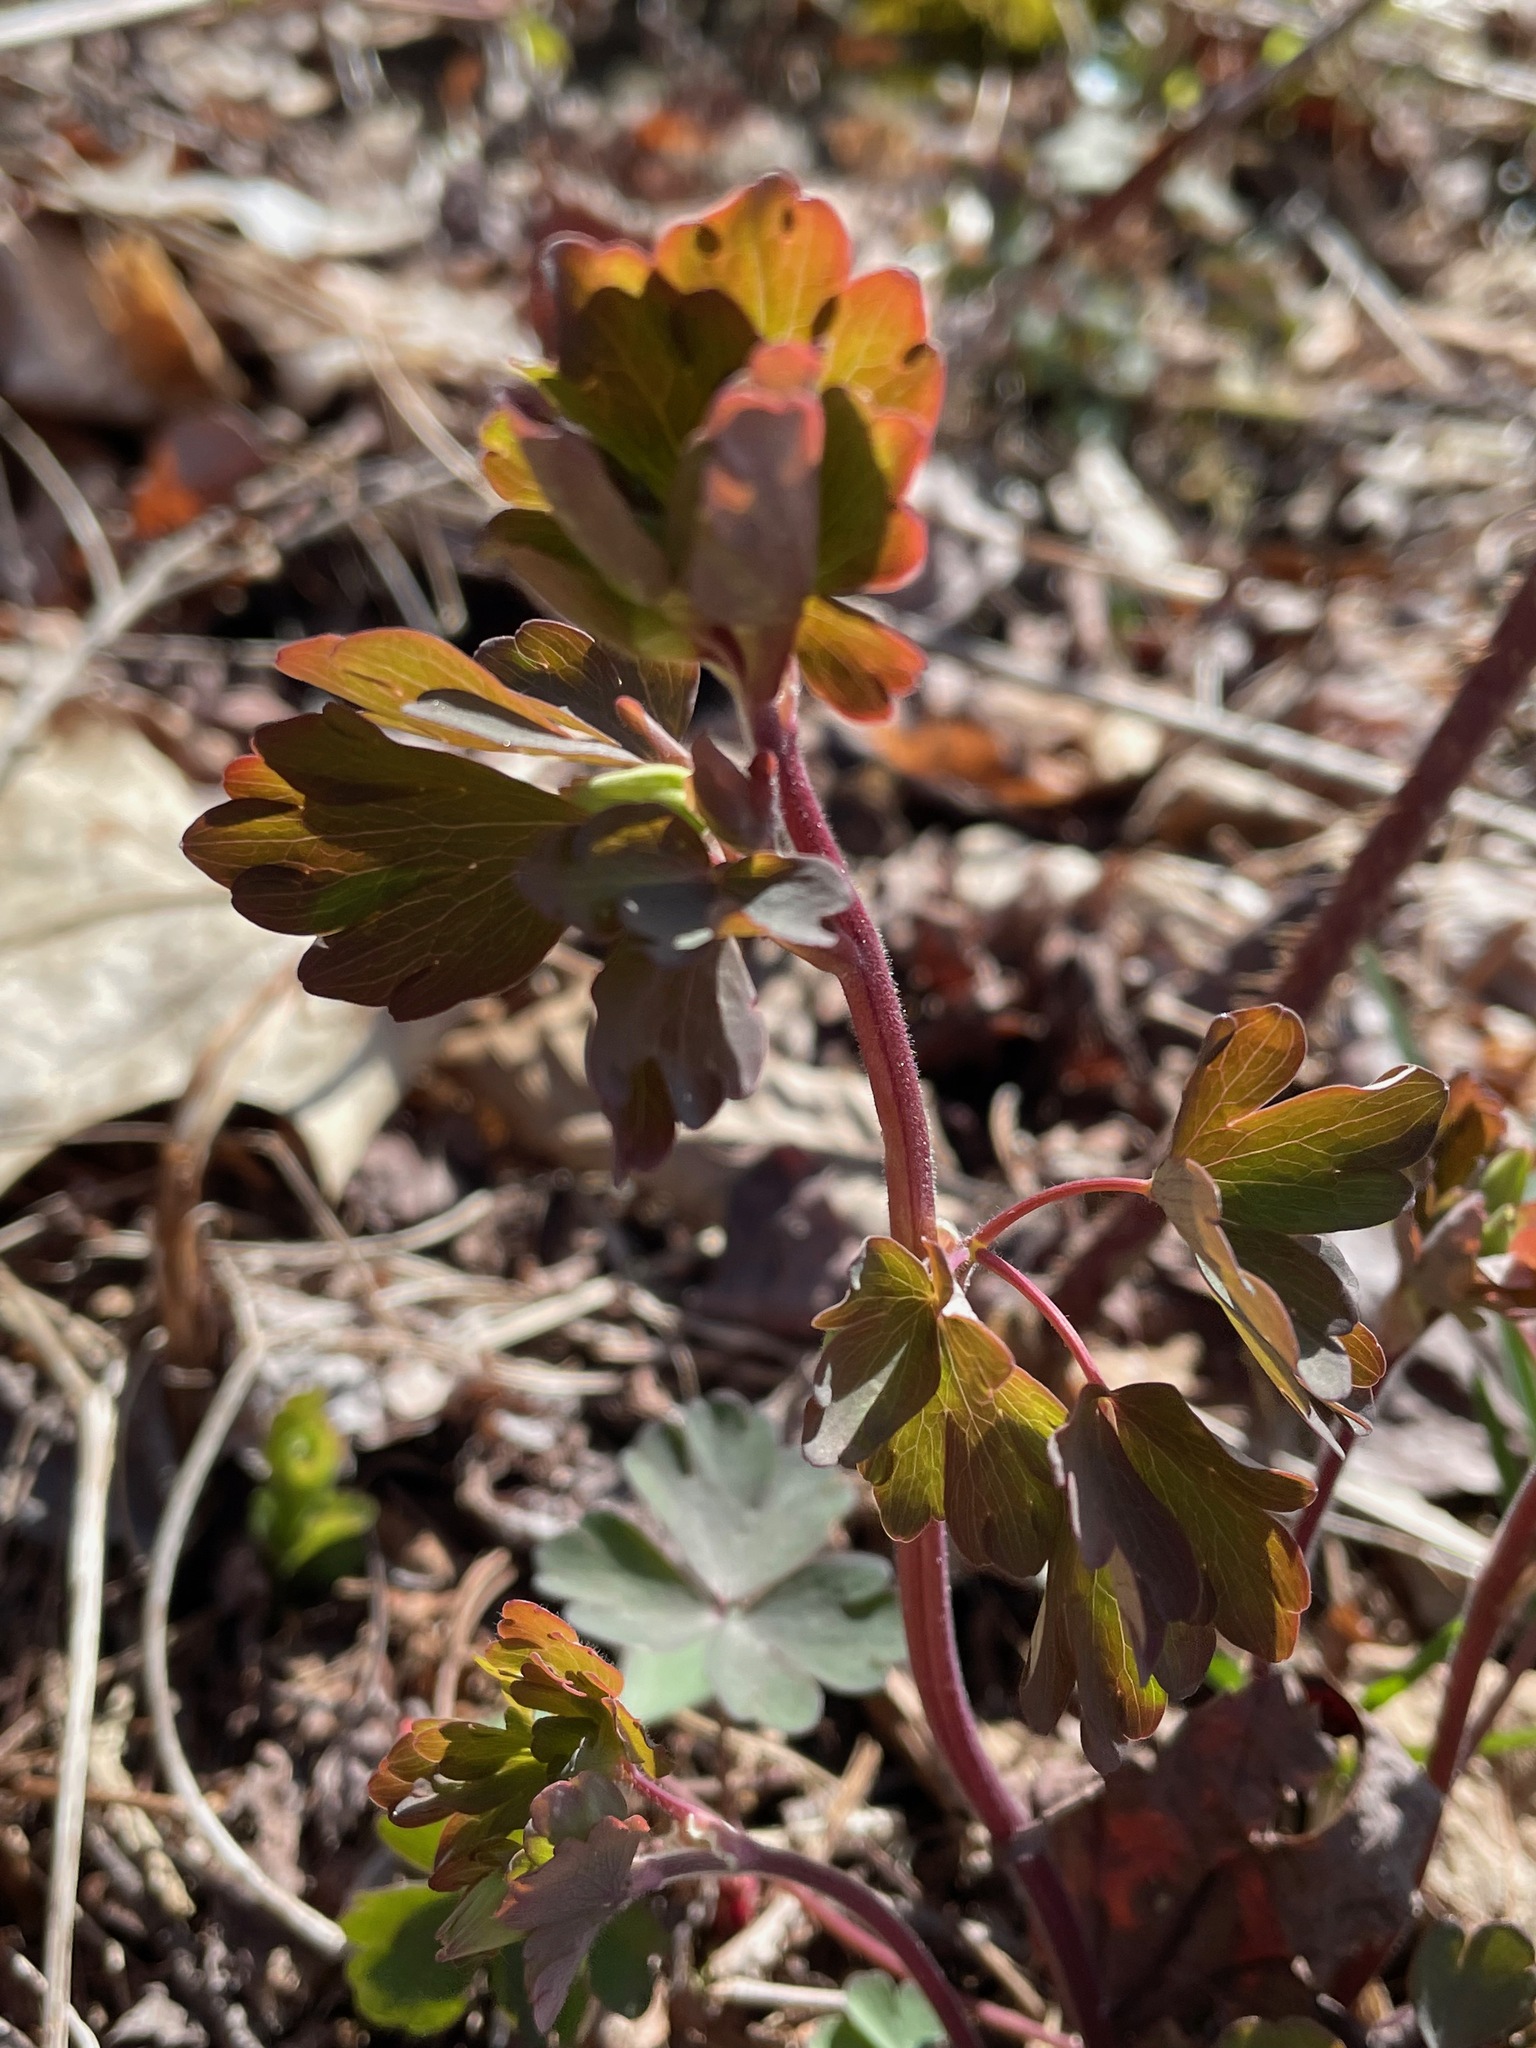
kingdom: Plantae
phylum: Tracheophyta
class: Magnoliopsida
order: Ranunculales
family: Ranunculaceae
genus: Aquilegia
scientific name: Aquilegia canadensis
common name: American columbine
